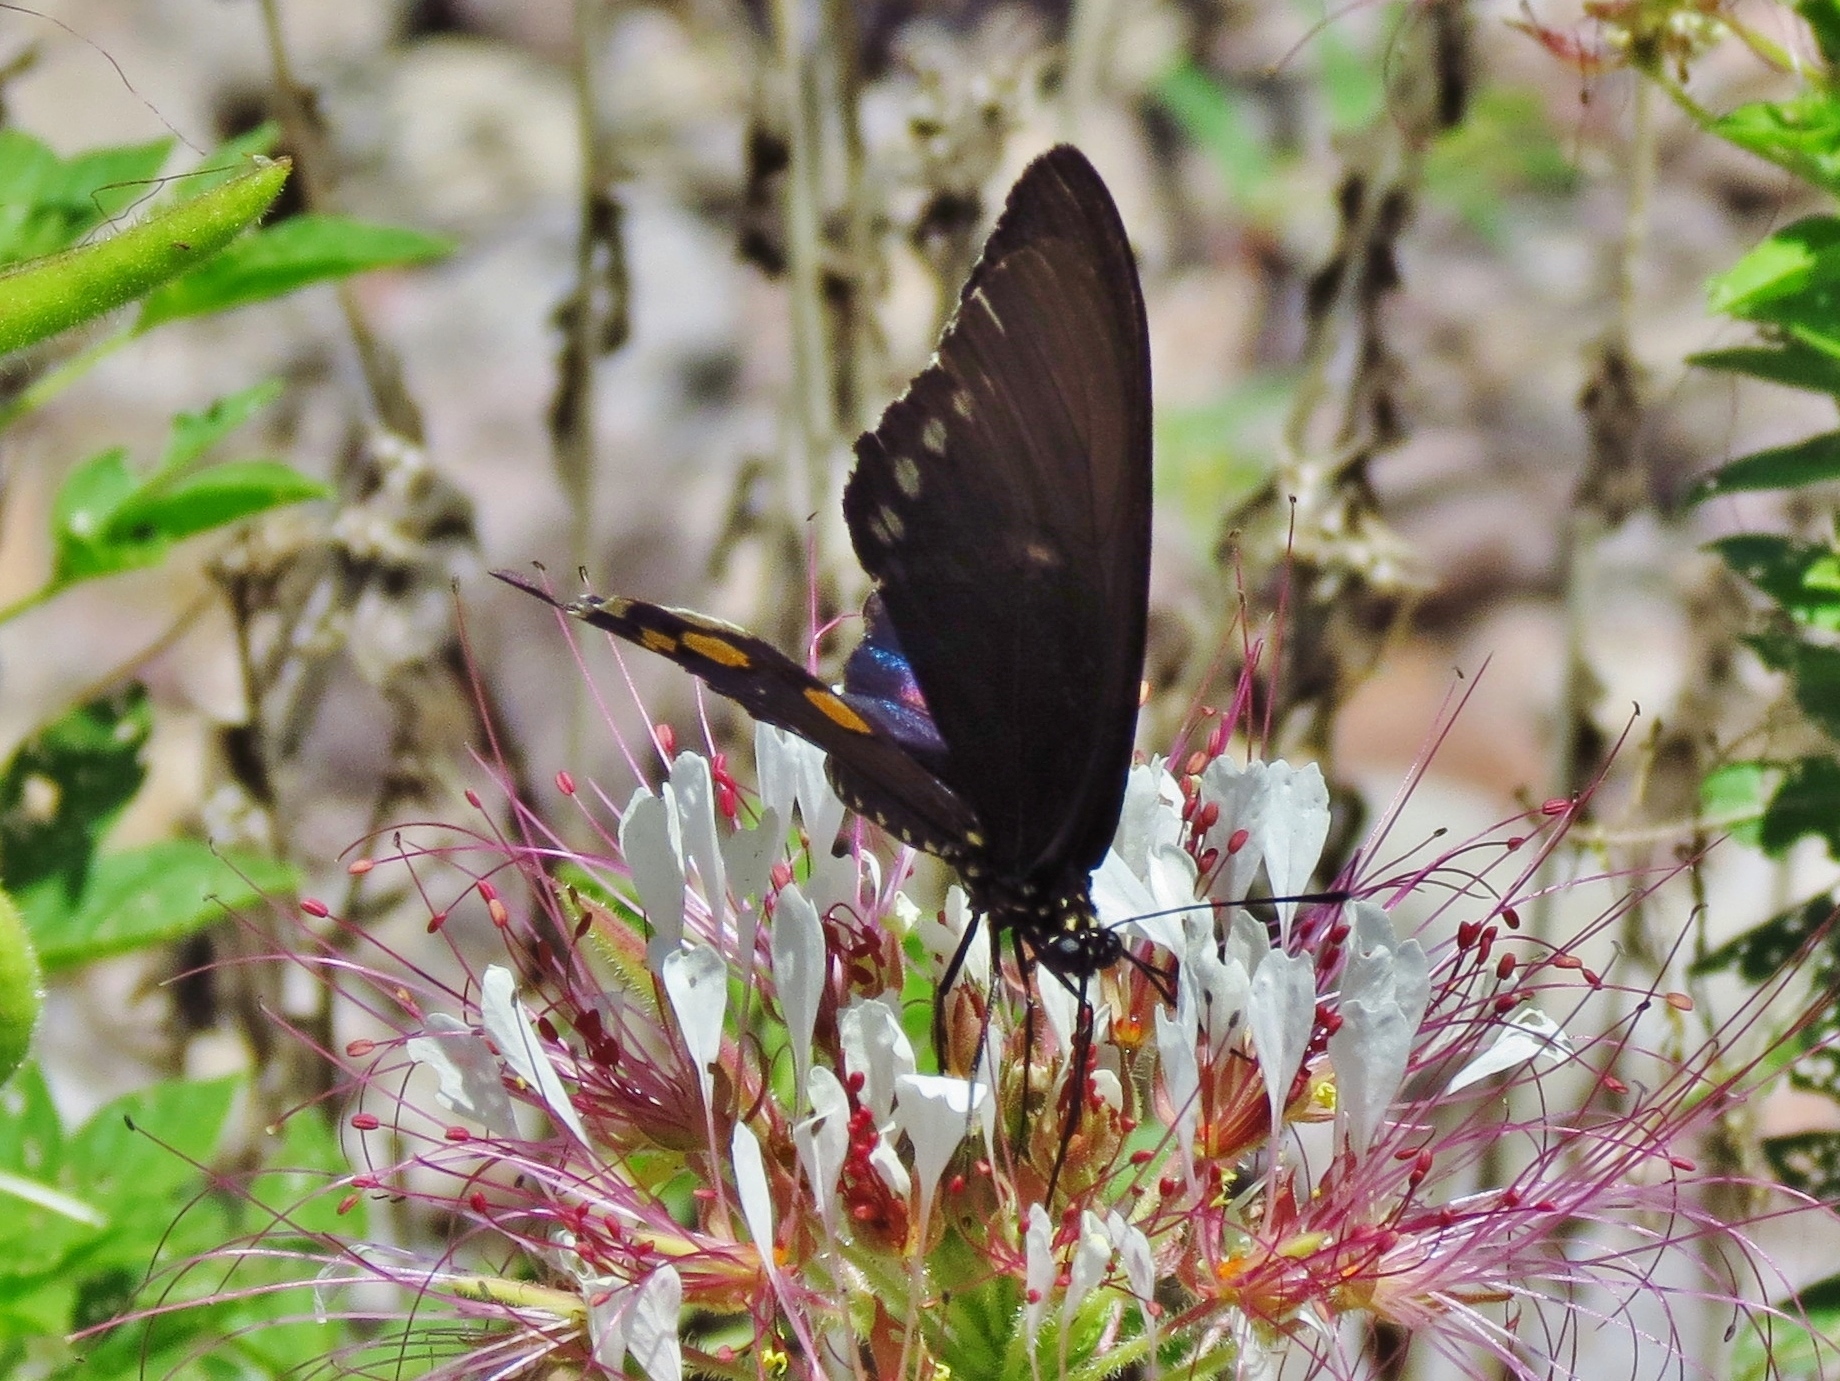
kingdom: Animalia
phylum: Arthropoda
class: Insecta
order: Lepidoptera
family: Papilionidae
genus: Battus
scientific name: Battus philenor
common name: Pipevine swallowtail
